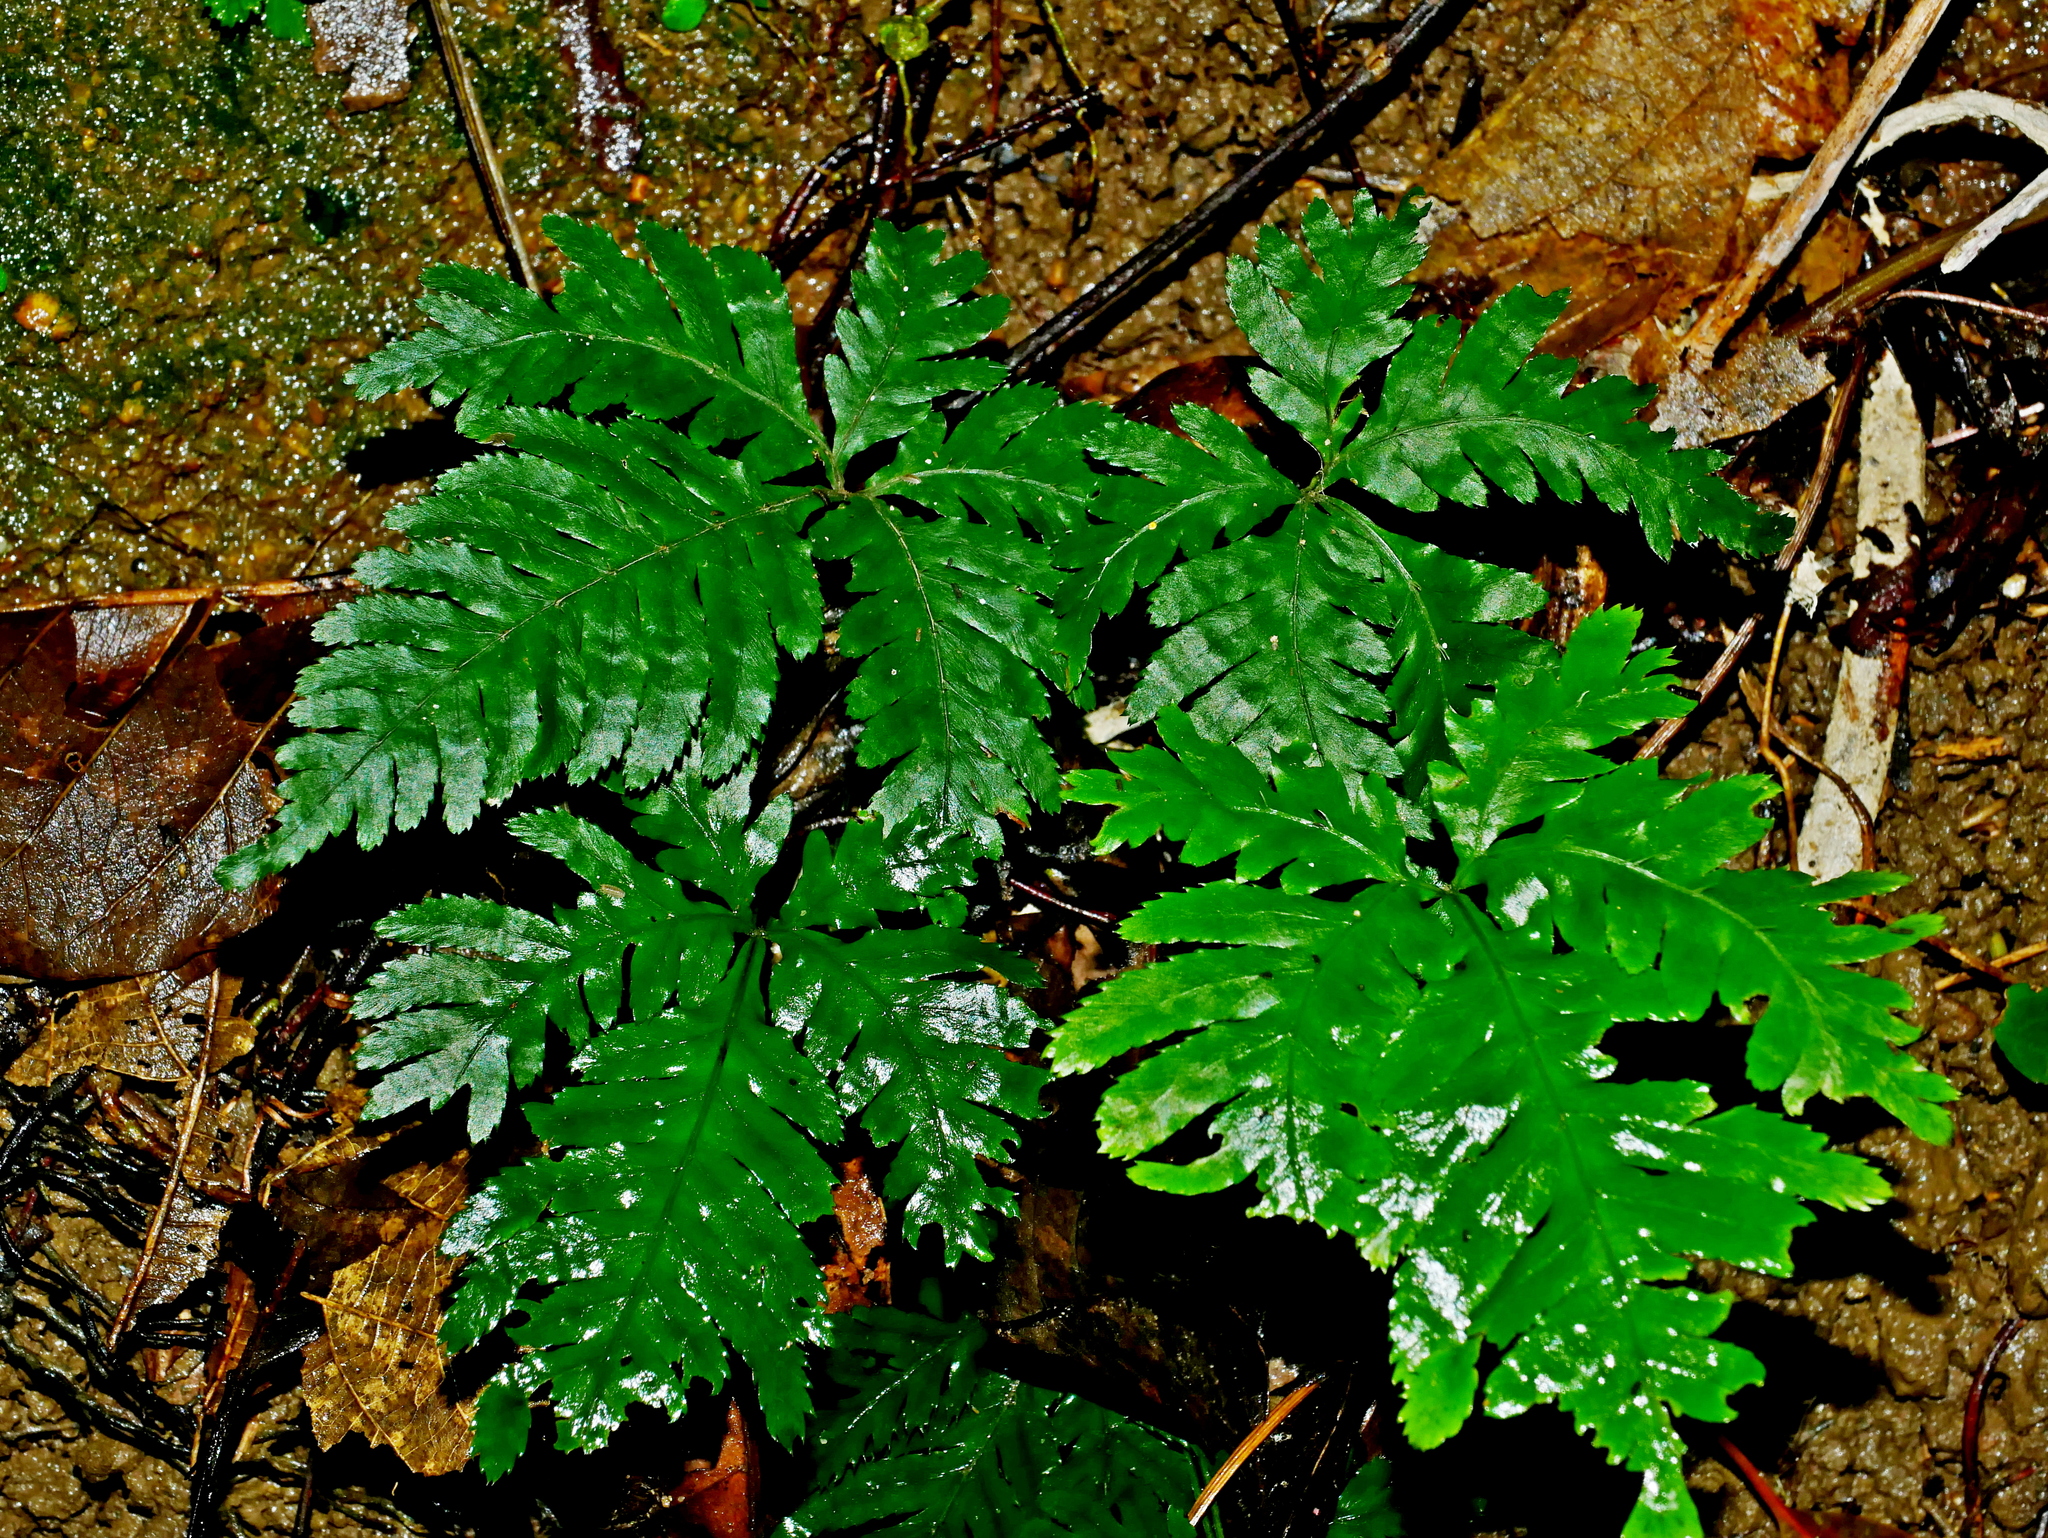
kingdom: Plantae
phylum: Tracheophyta
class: Polypodiopsida
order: Polypodiales
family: Pteridaceae
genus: Pteris
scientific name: Pteris grevilleana
